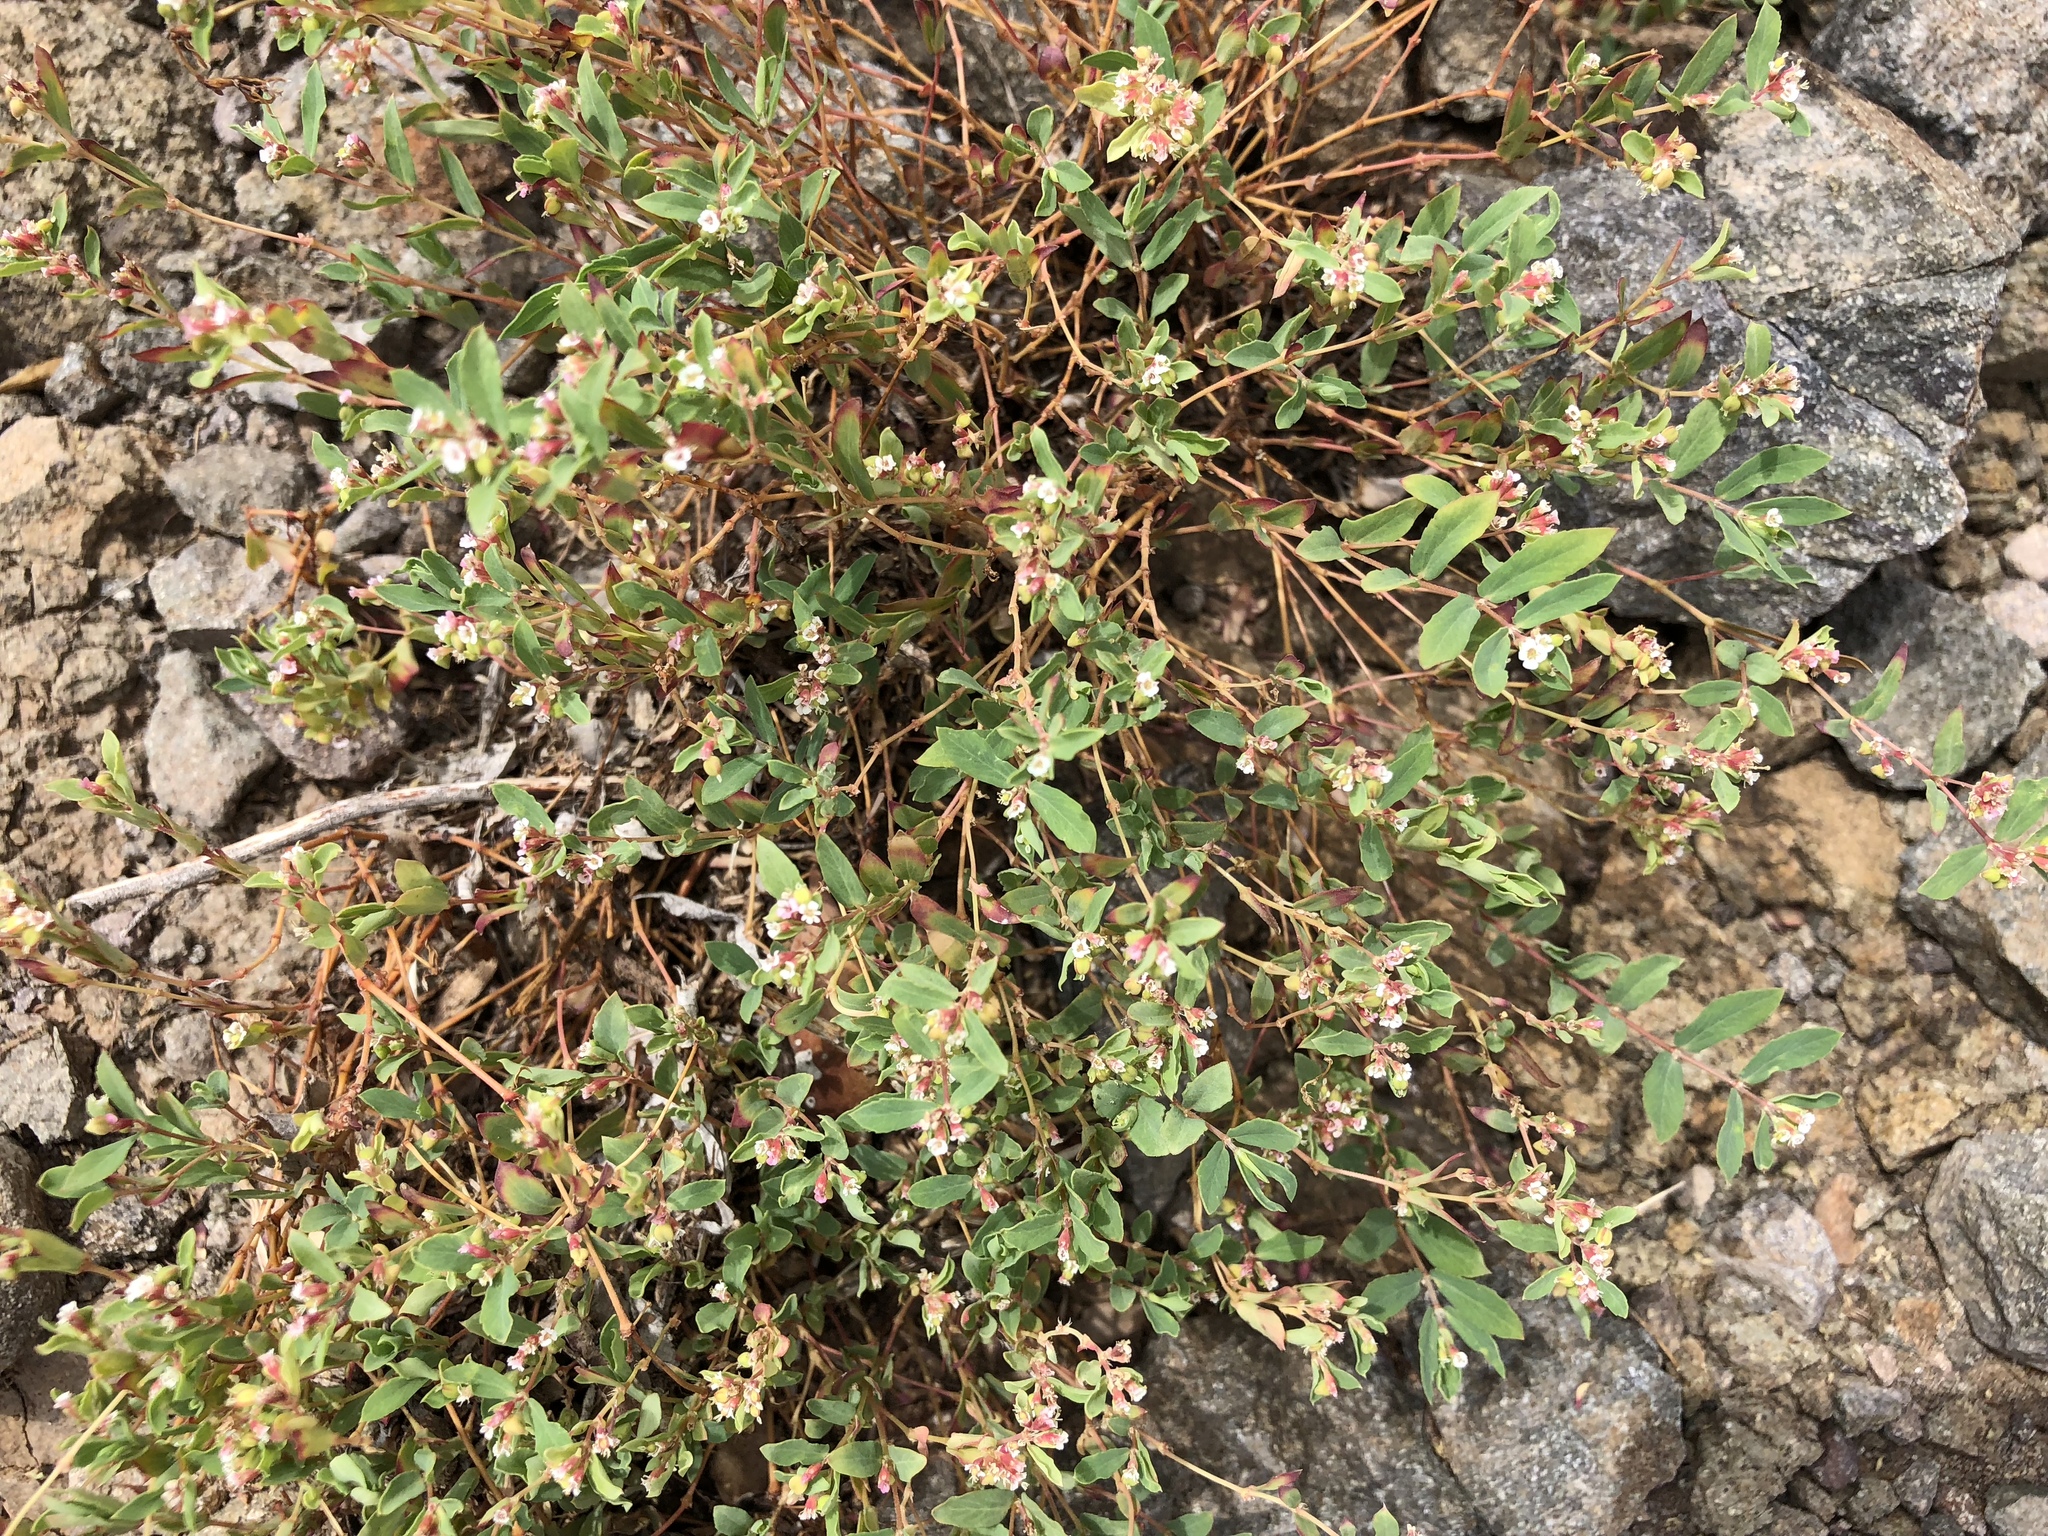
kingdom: Plantae
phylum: Tracheophyta
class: Magnoliopsida
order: Malpighiales
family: Euphorbiaceae
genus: Euphorbia
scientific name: Euphorbia capitellata
